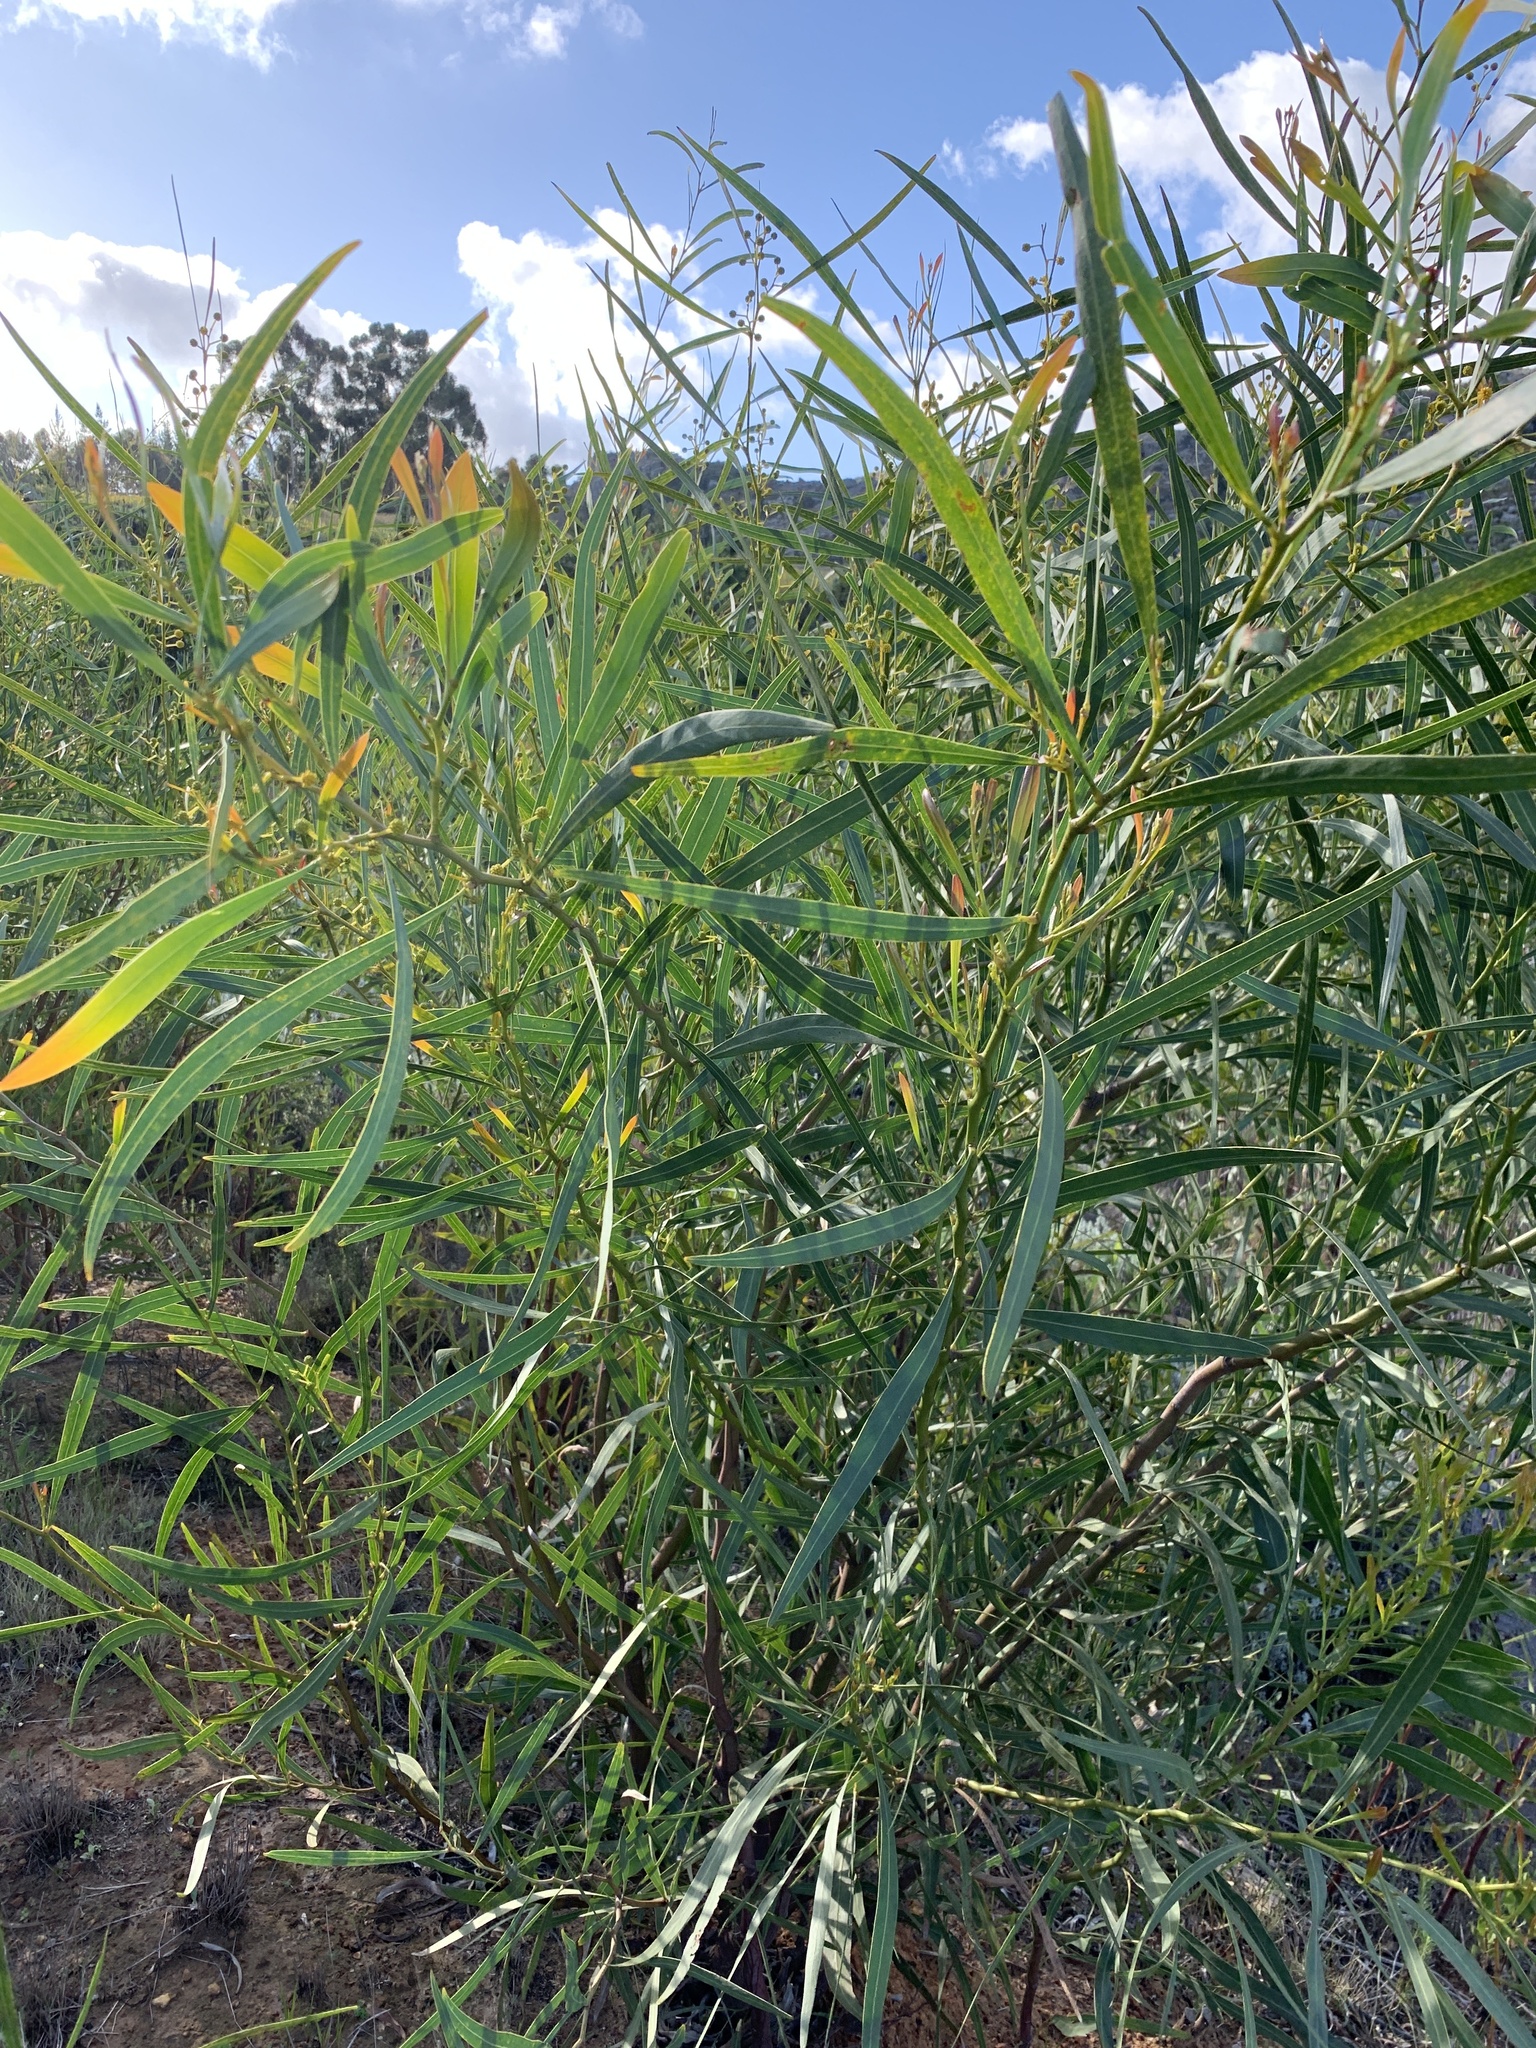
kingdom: Plantae
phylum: Tracheophyta
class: Magnoliopsida
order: Fabales
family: Fabaceae
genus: Acacia
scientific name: Acacia saligna
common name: Orange wattle
